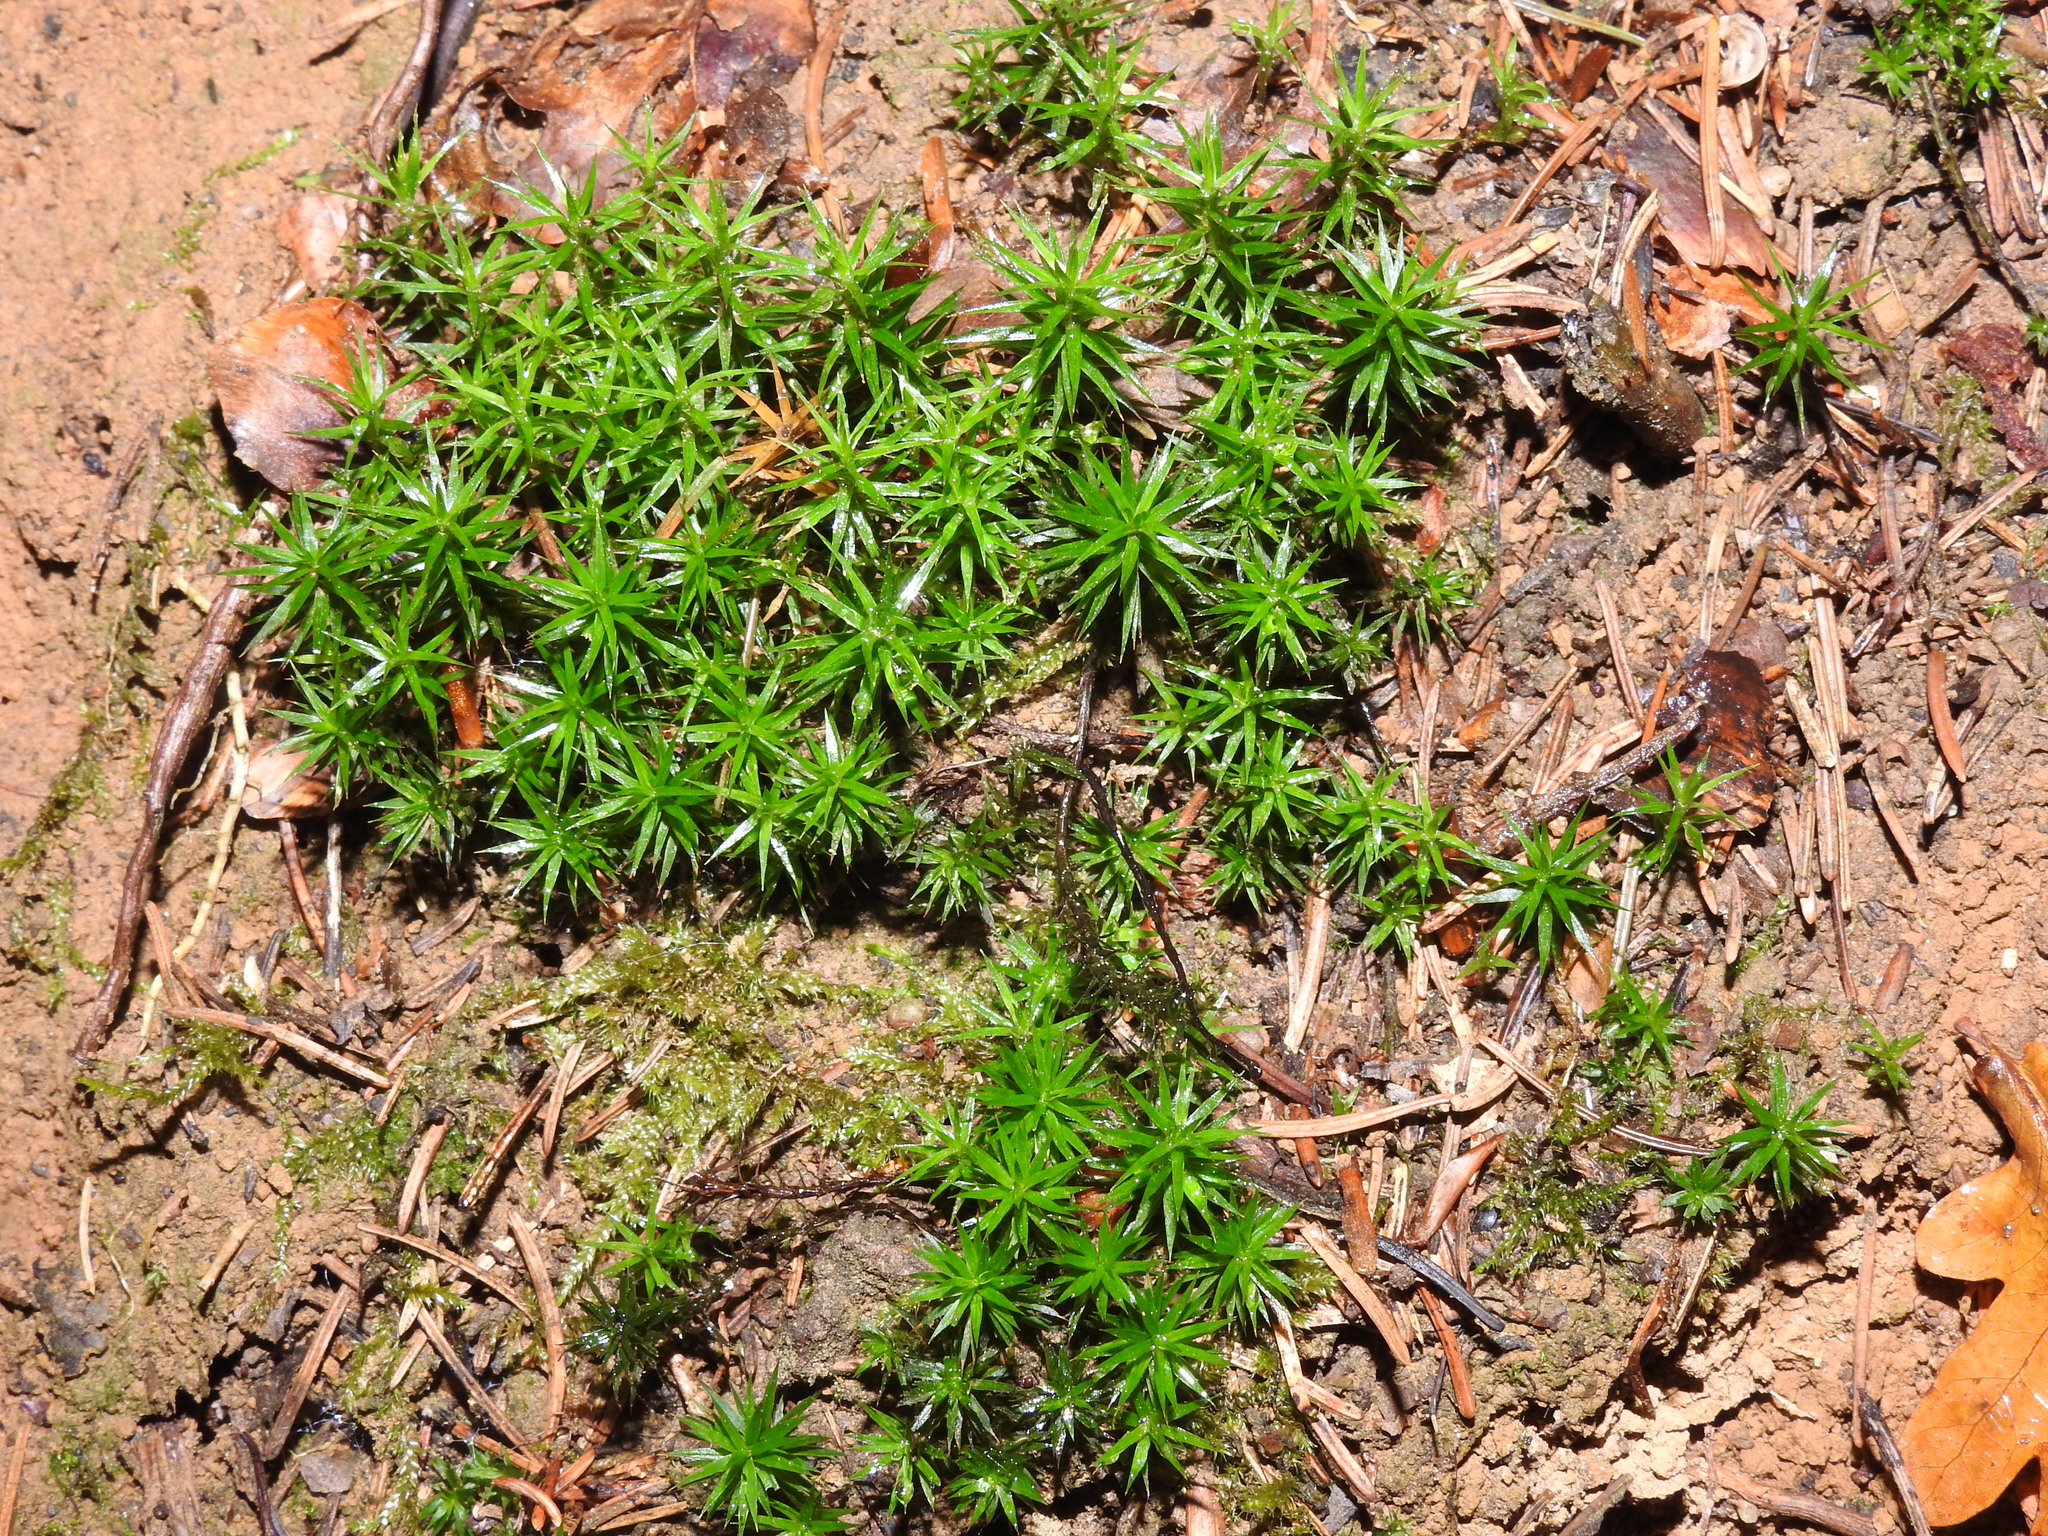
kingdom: Plantae
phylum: Bryophyta
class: Polytrichopsida
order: Polytrichales
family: Polytrichaceae
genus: Polytrichum
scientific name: Polytrichum formosum
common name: Bank haircap moss
